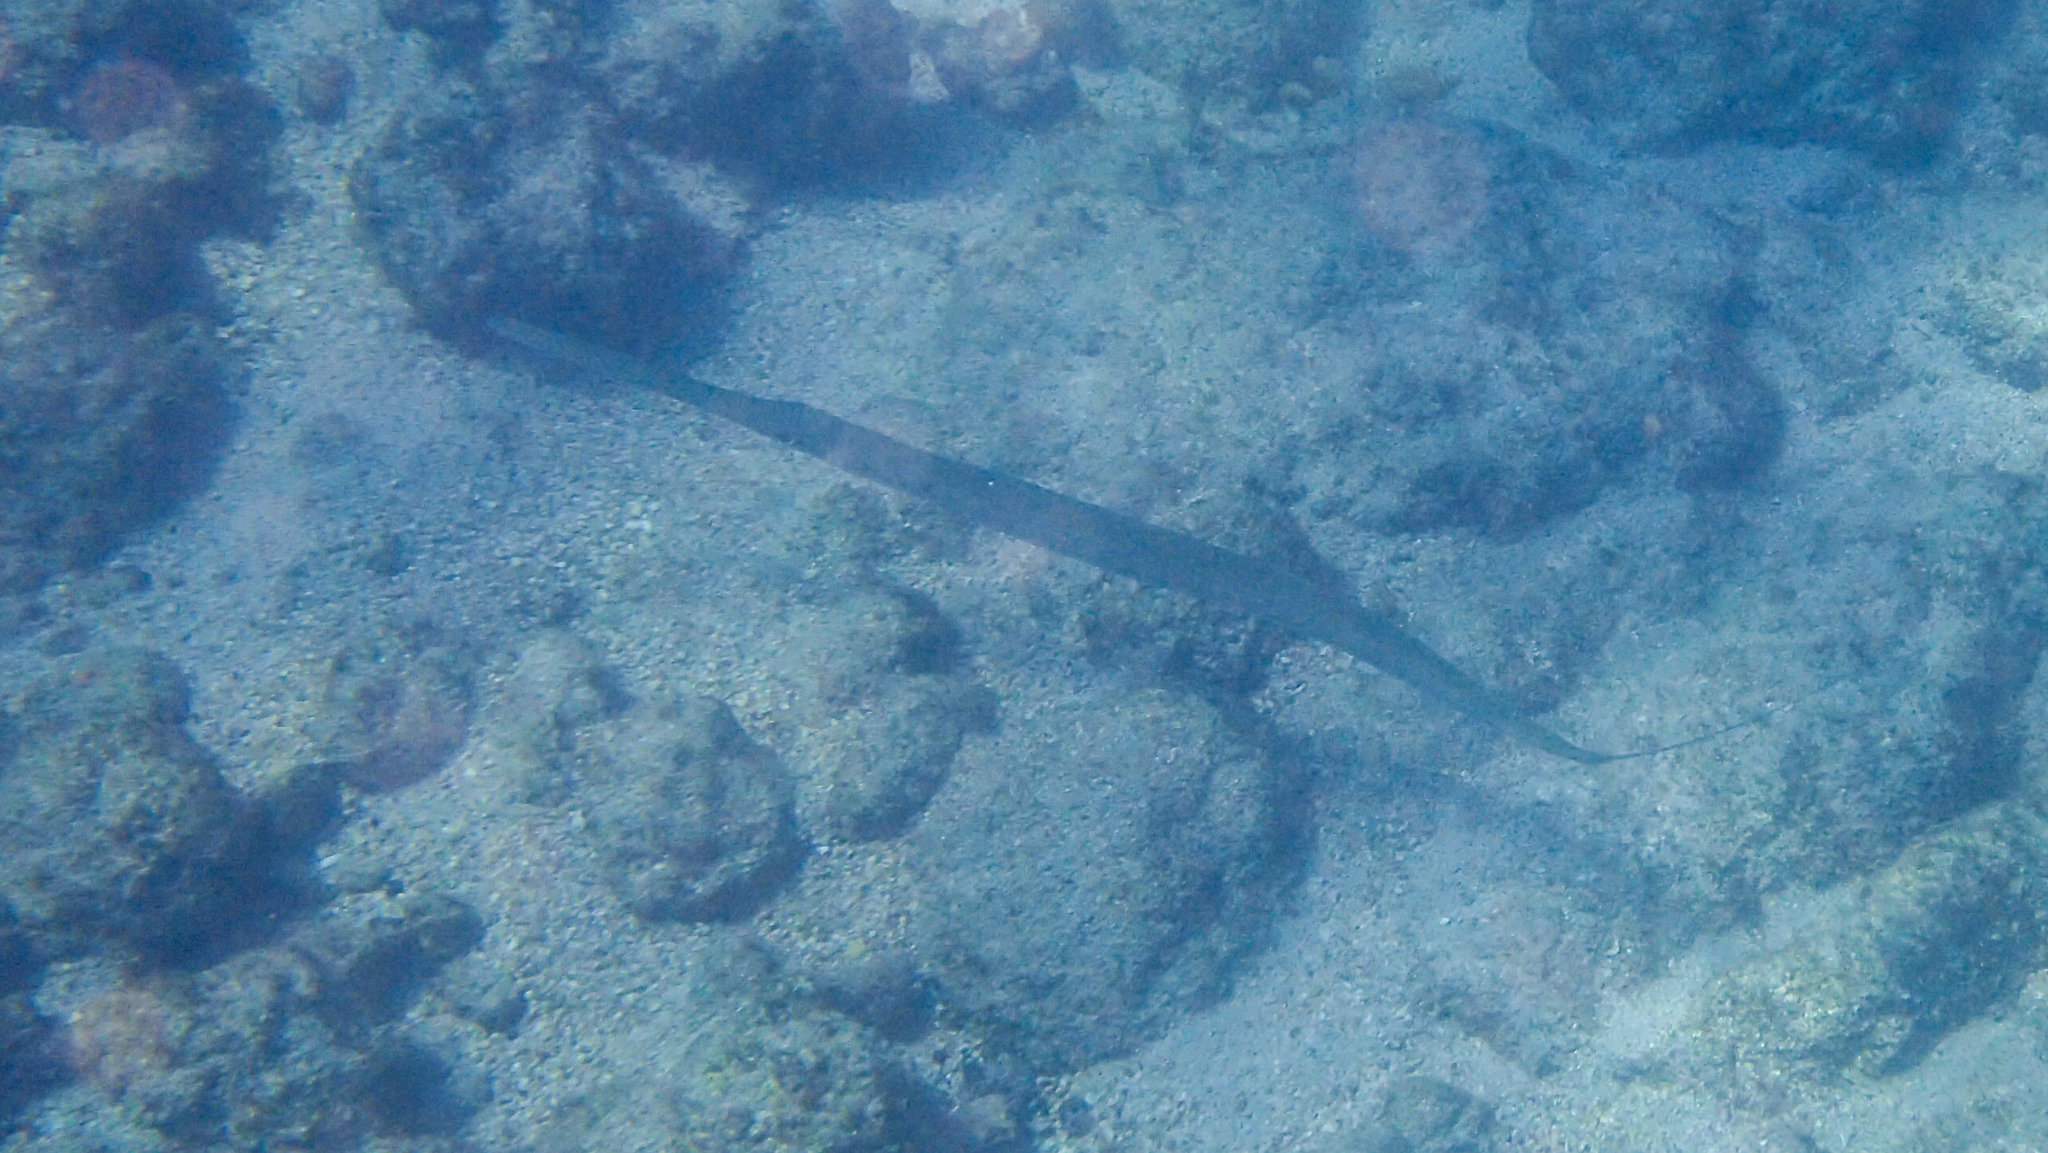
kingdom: Animalia
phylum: Chordata
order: Syngnathiformes
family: Fistulariidae
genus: Fistularia
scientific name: Fistularia commersonii
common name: Bluespotted cornetfish
